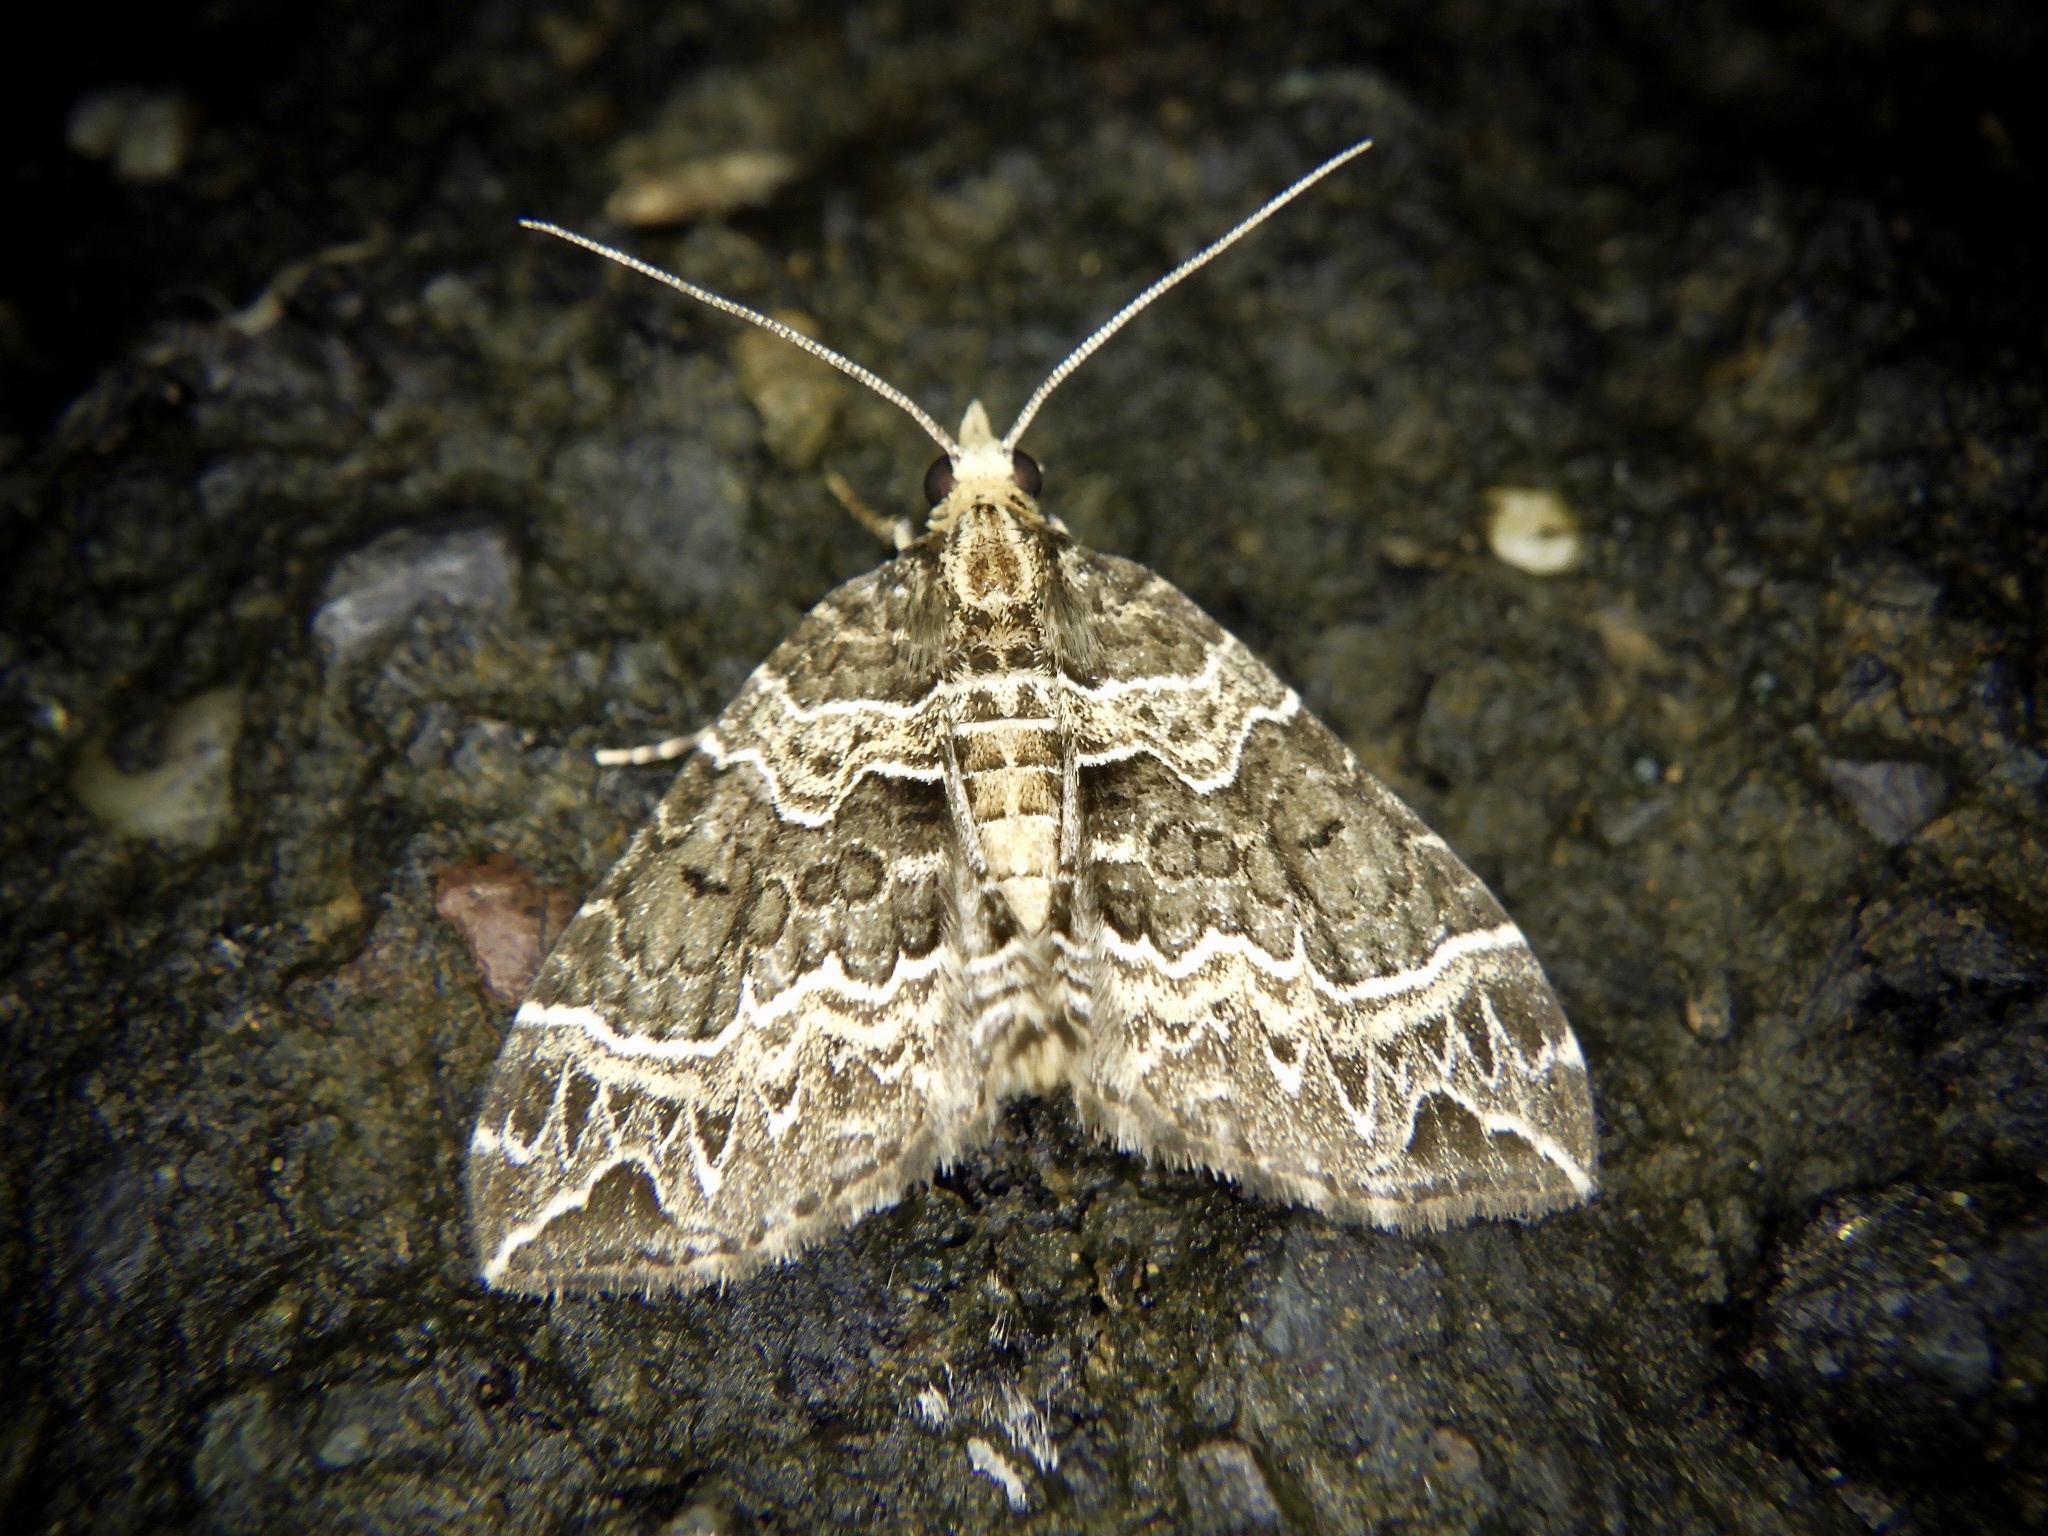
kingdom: Animalia
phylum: Arthropoda
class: Insecta
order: Lepidoptera
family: Geometridae
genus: Ecliptopera
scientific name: Ecliptopera umbrosaria
